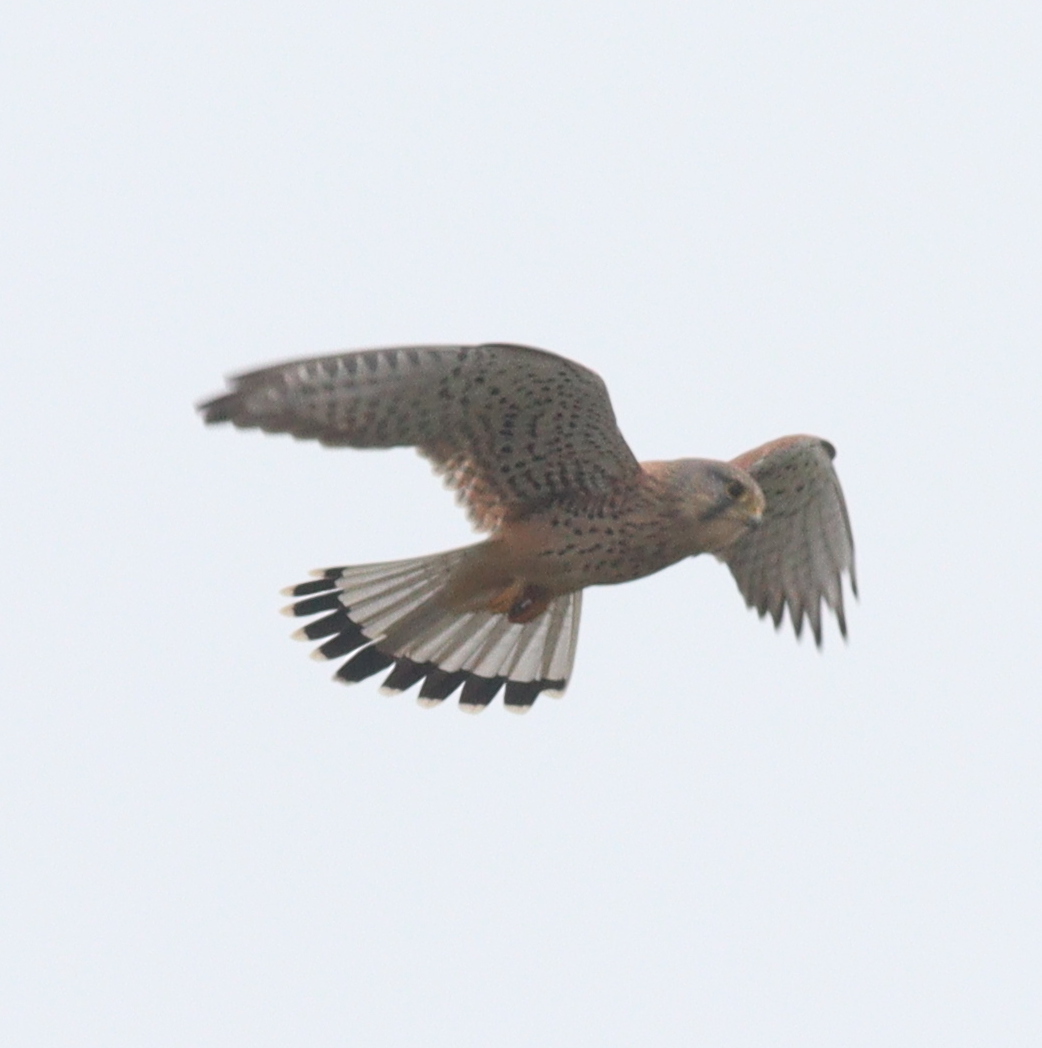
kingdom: Animalia
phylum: Chordata
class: Aves
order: Falconiformes
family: Falconidae
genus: Falco
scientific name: Falco tinnunculus
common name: Common kestrel
